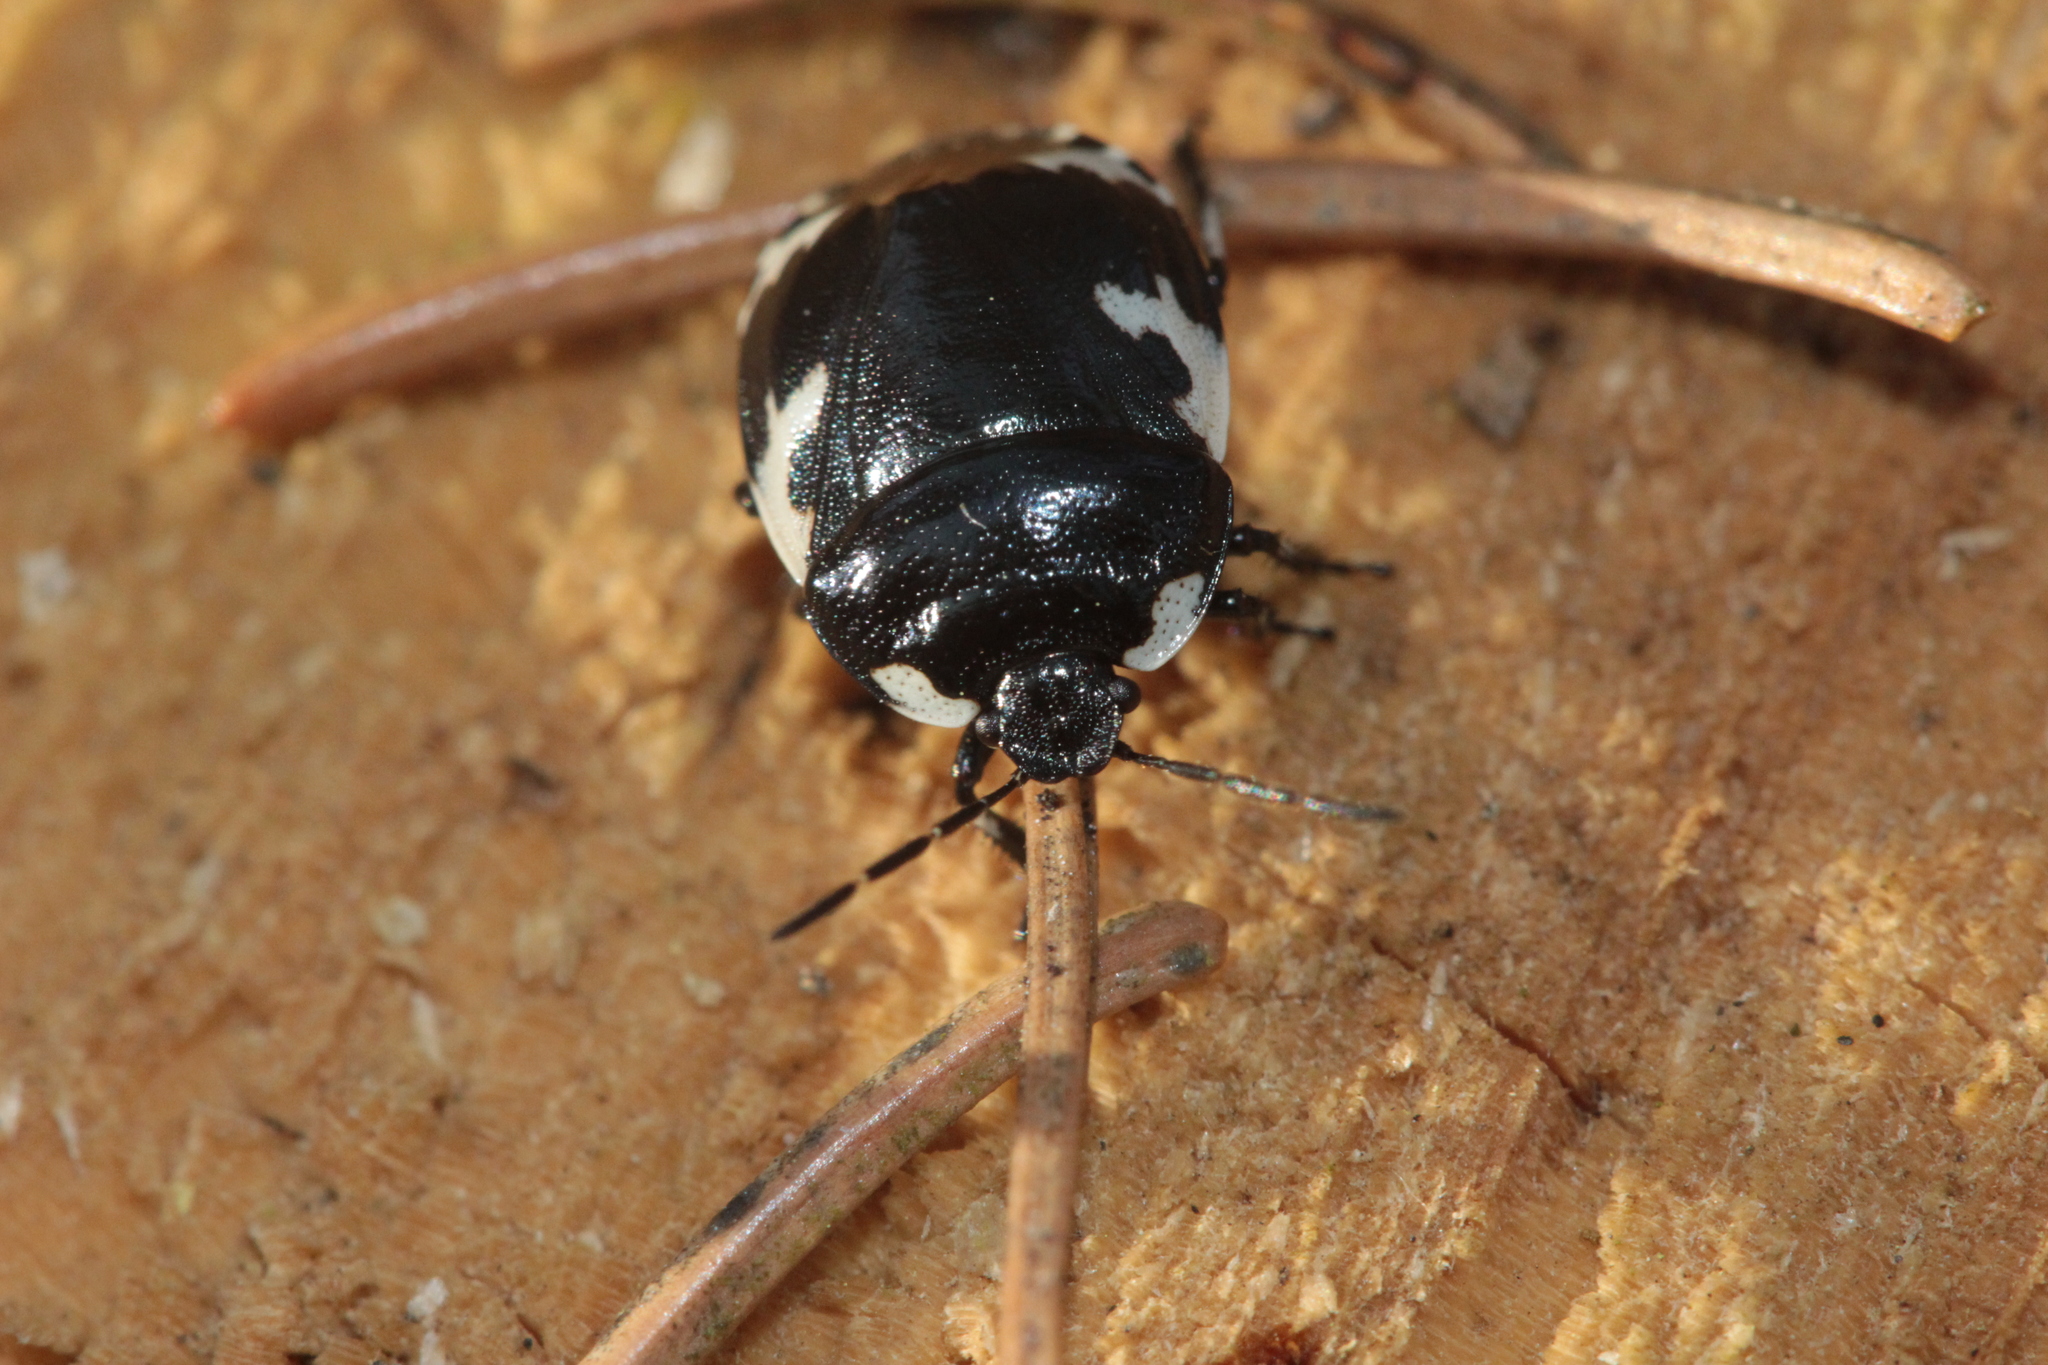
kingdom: Animalia
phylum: Arthropoda
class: Insecta
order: Hemiptera
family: Cydnidae
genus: Tritomegas
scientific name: Tritomegas bicolor
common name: Pied shieldbug
